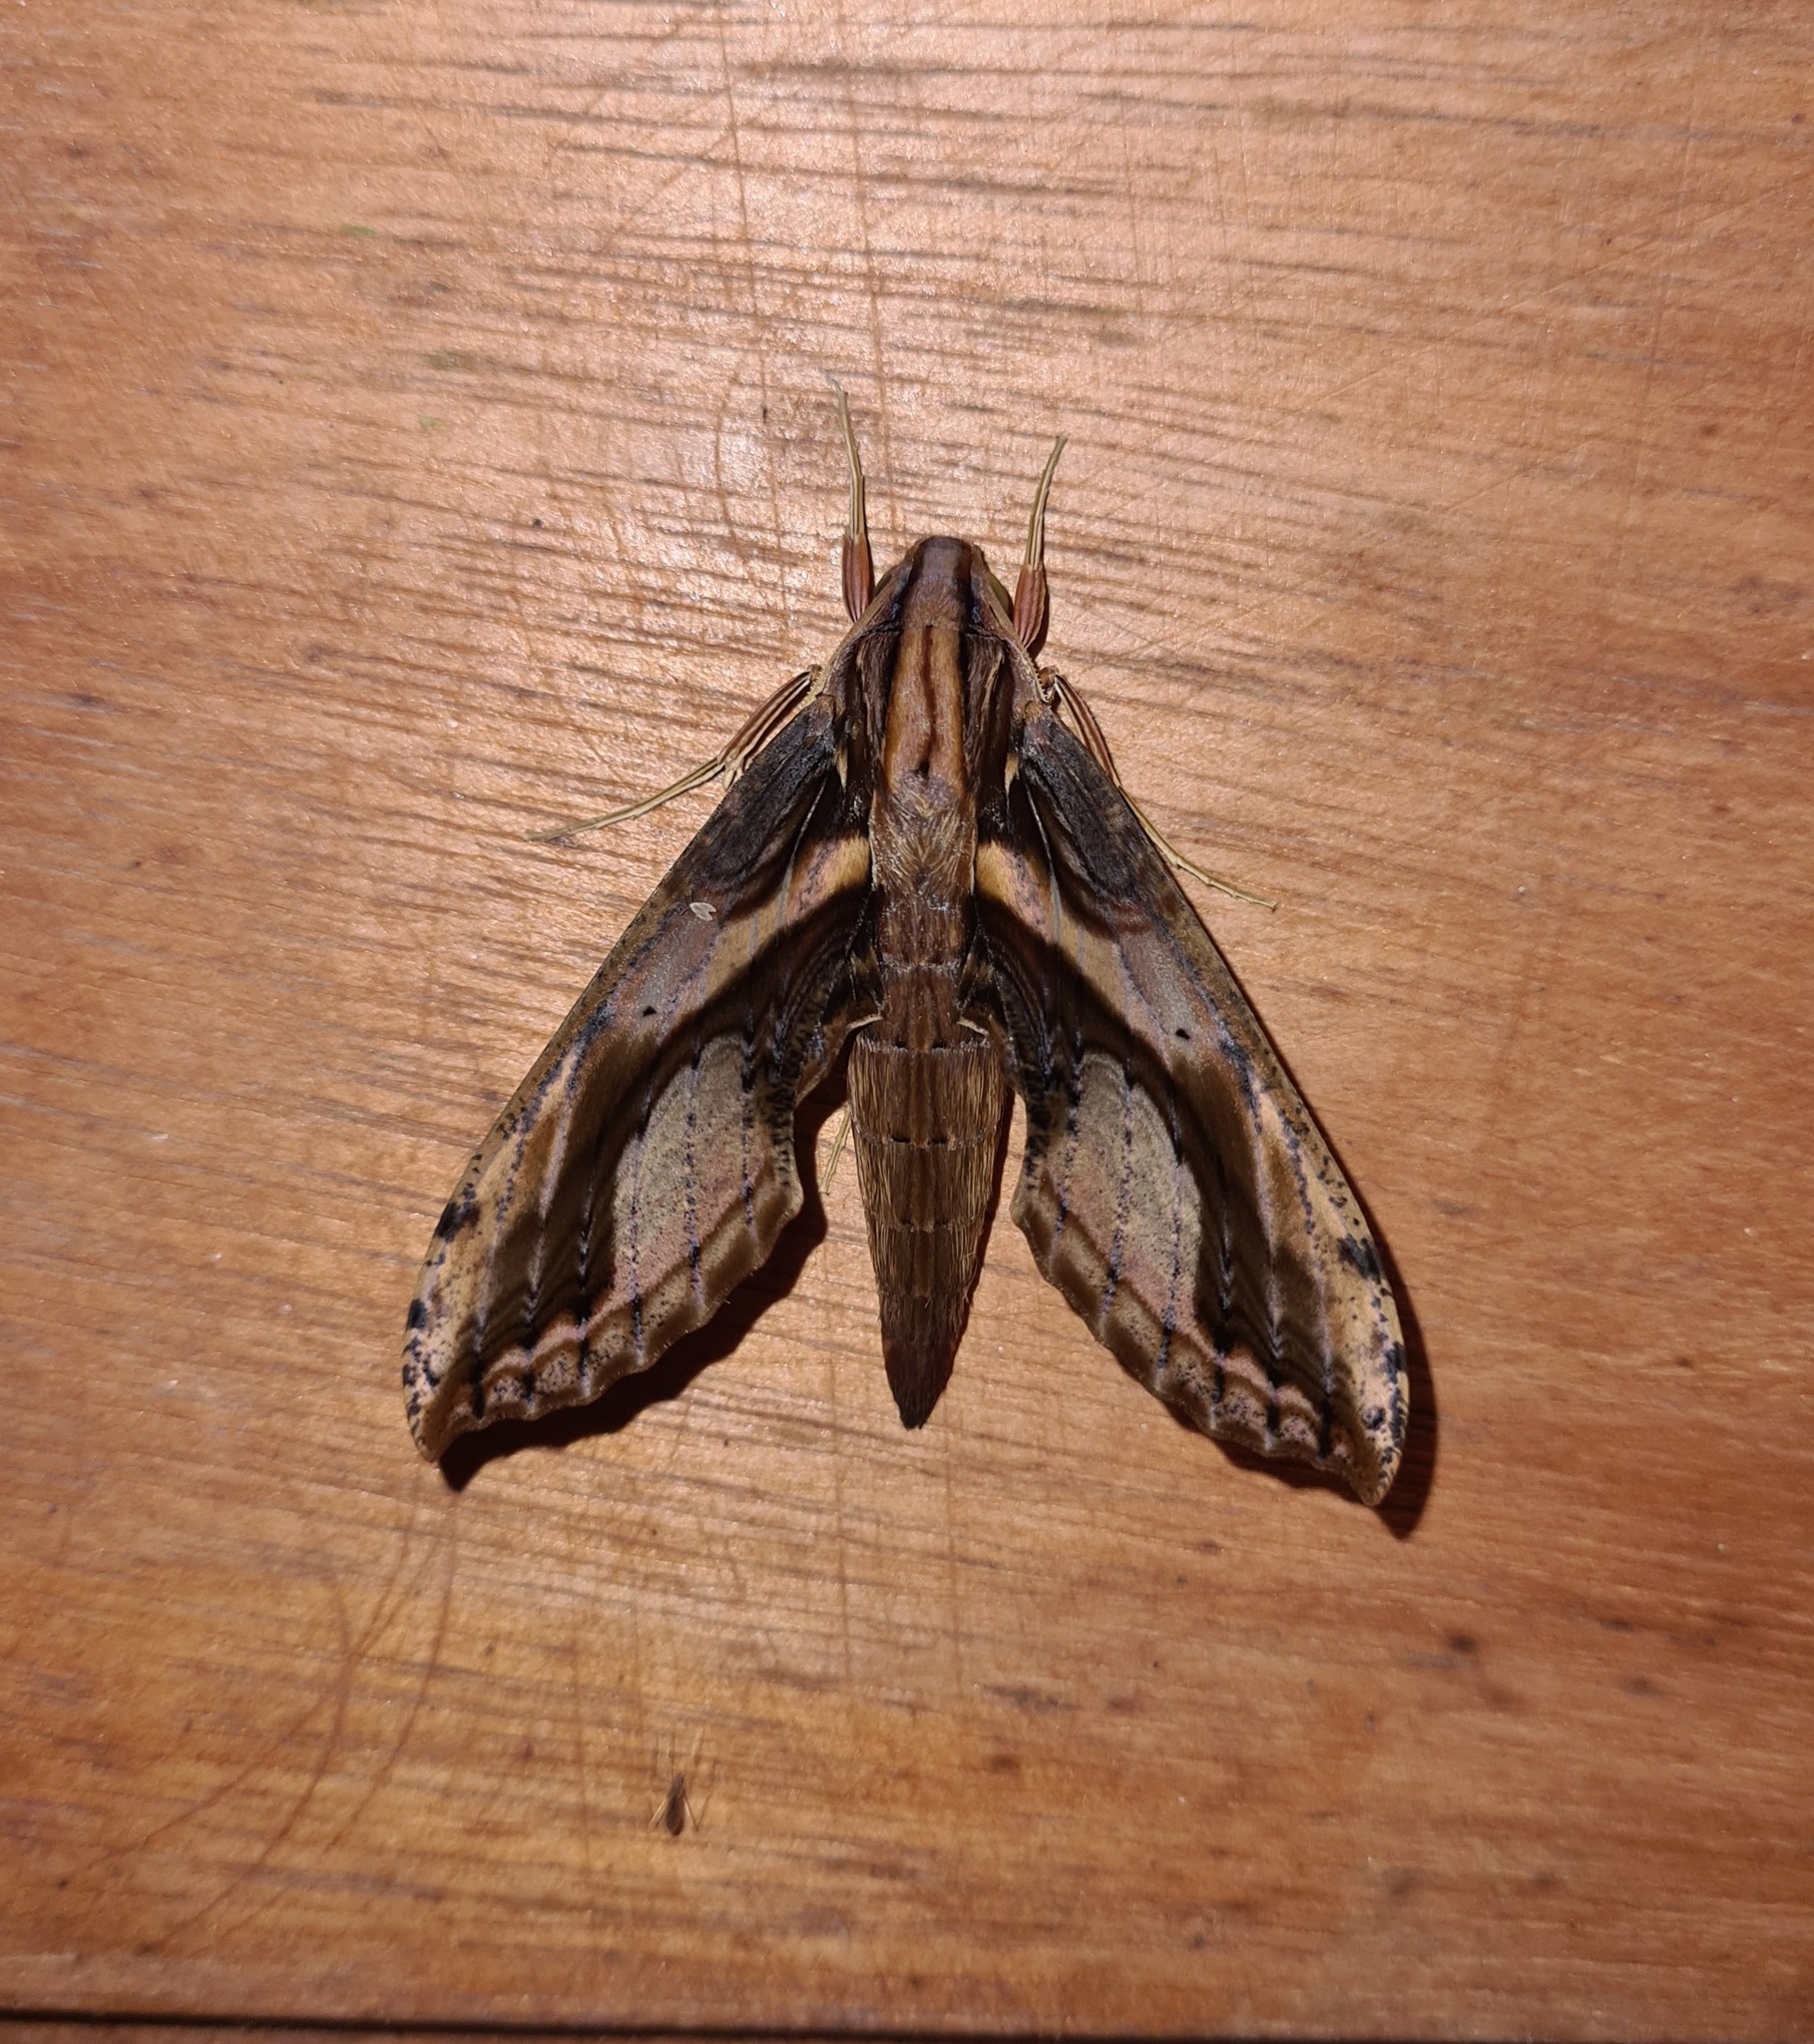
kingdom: Animalia
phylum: Arthropoda
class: Insecta
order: Lepidoptera
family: Sphingidae
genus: Xylophanes
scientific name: Xylophanes ceratomioides
